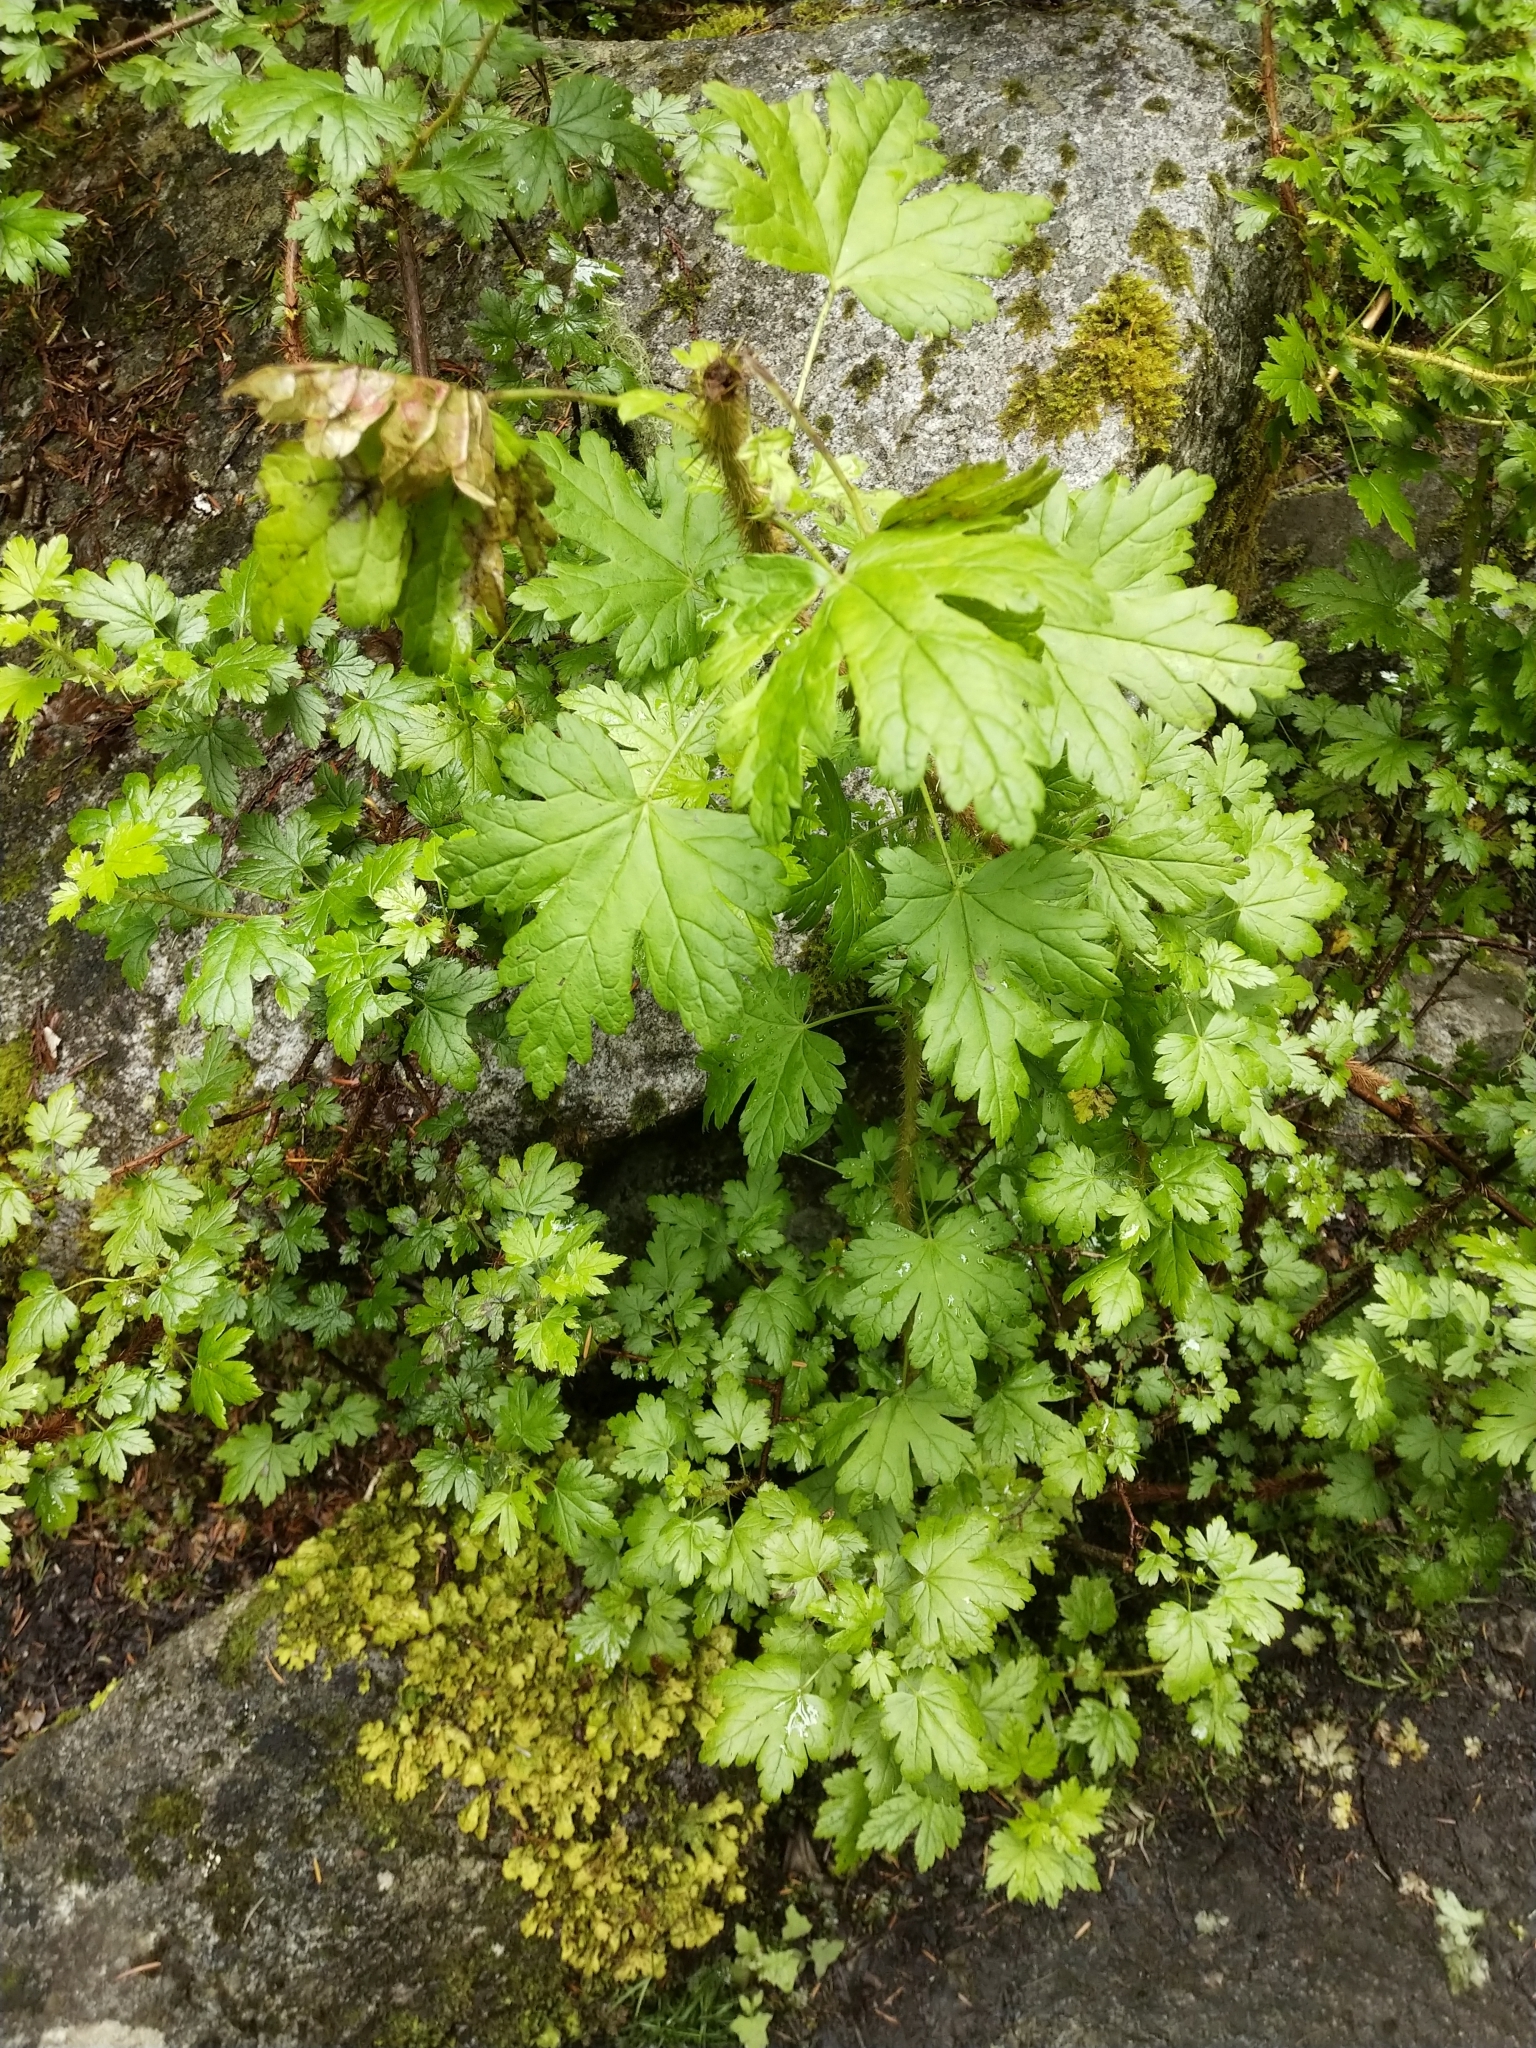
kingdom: Plantae
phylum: Tracheophyta
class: Magnoliopsida
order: Saxifragales
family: Grossulariaceae
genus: Ribes
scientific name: Ribes lacustre
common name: Black gooseberry
